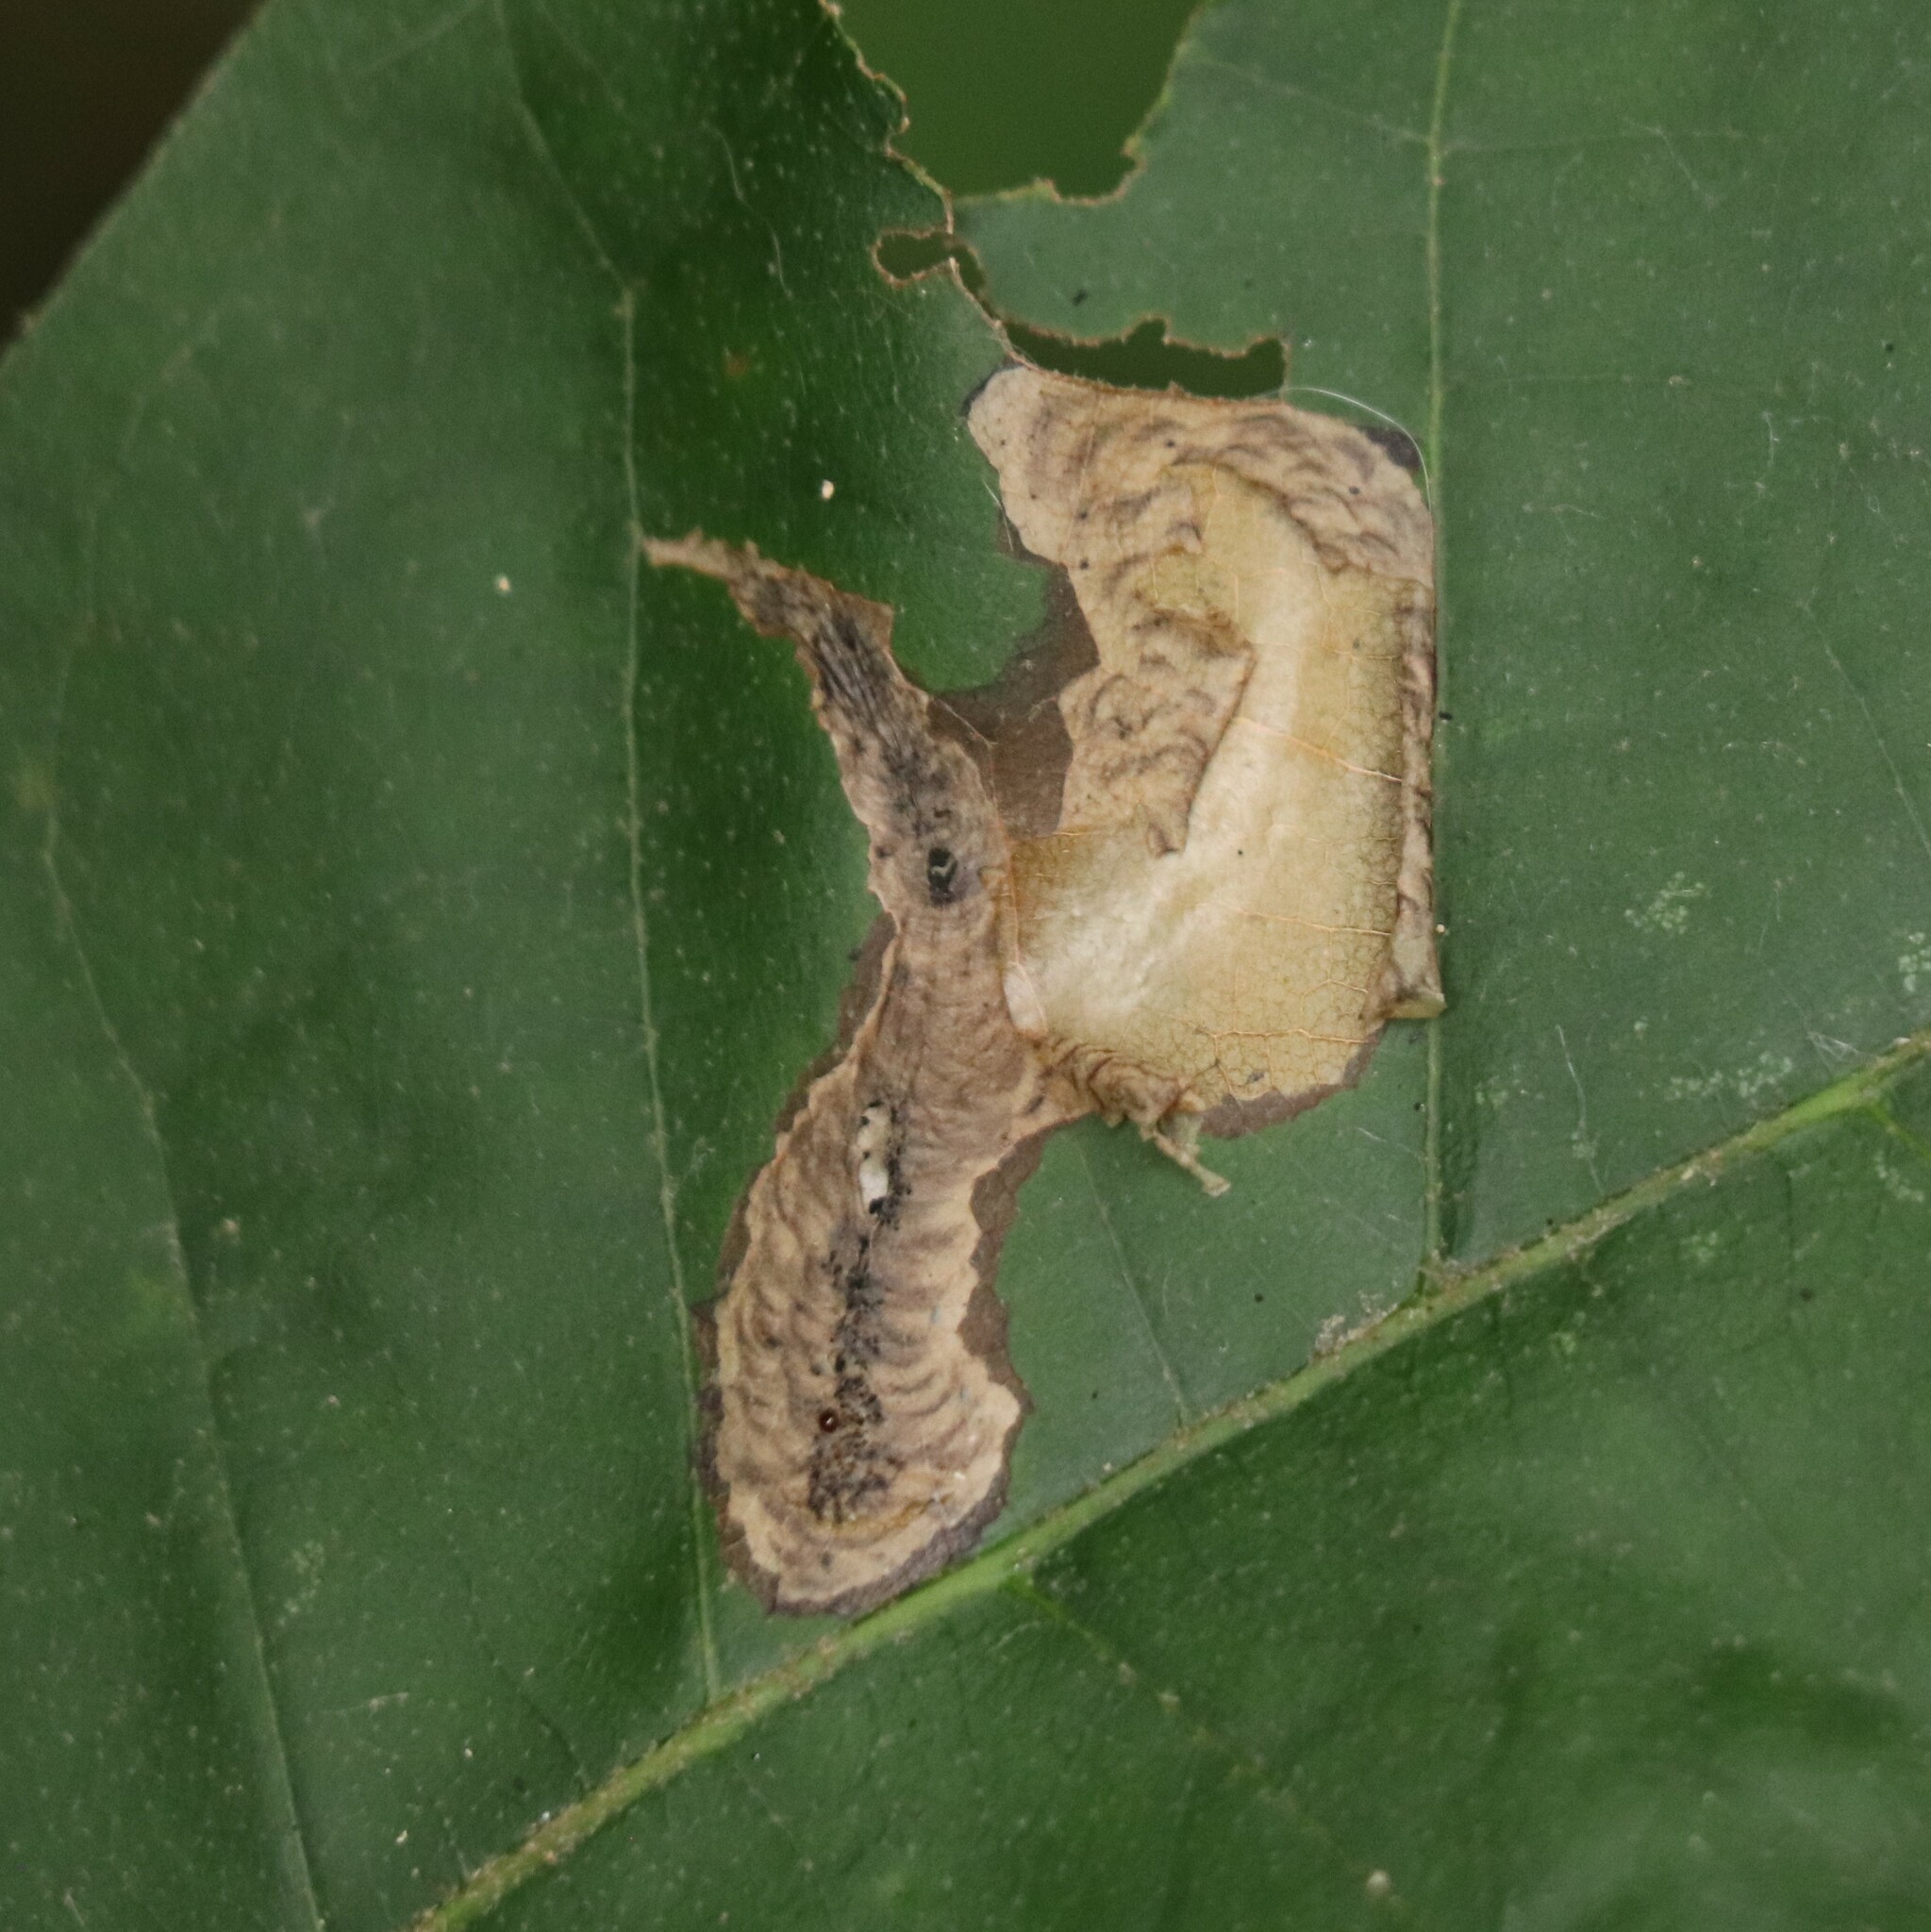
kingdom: Animalia
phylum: Arthropoda
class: Insecta
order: Lepidoptera
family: Tischeriidae
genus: Coptotriche
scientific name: Coptotriche castaneaeella
